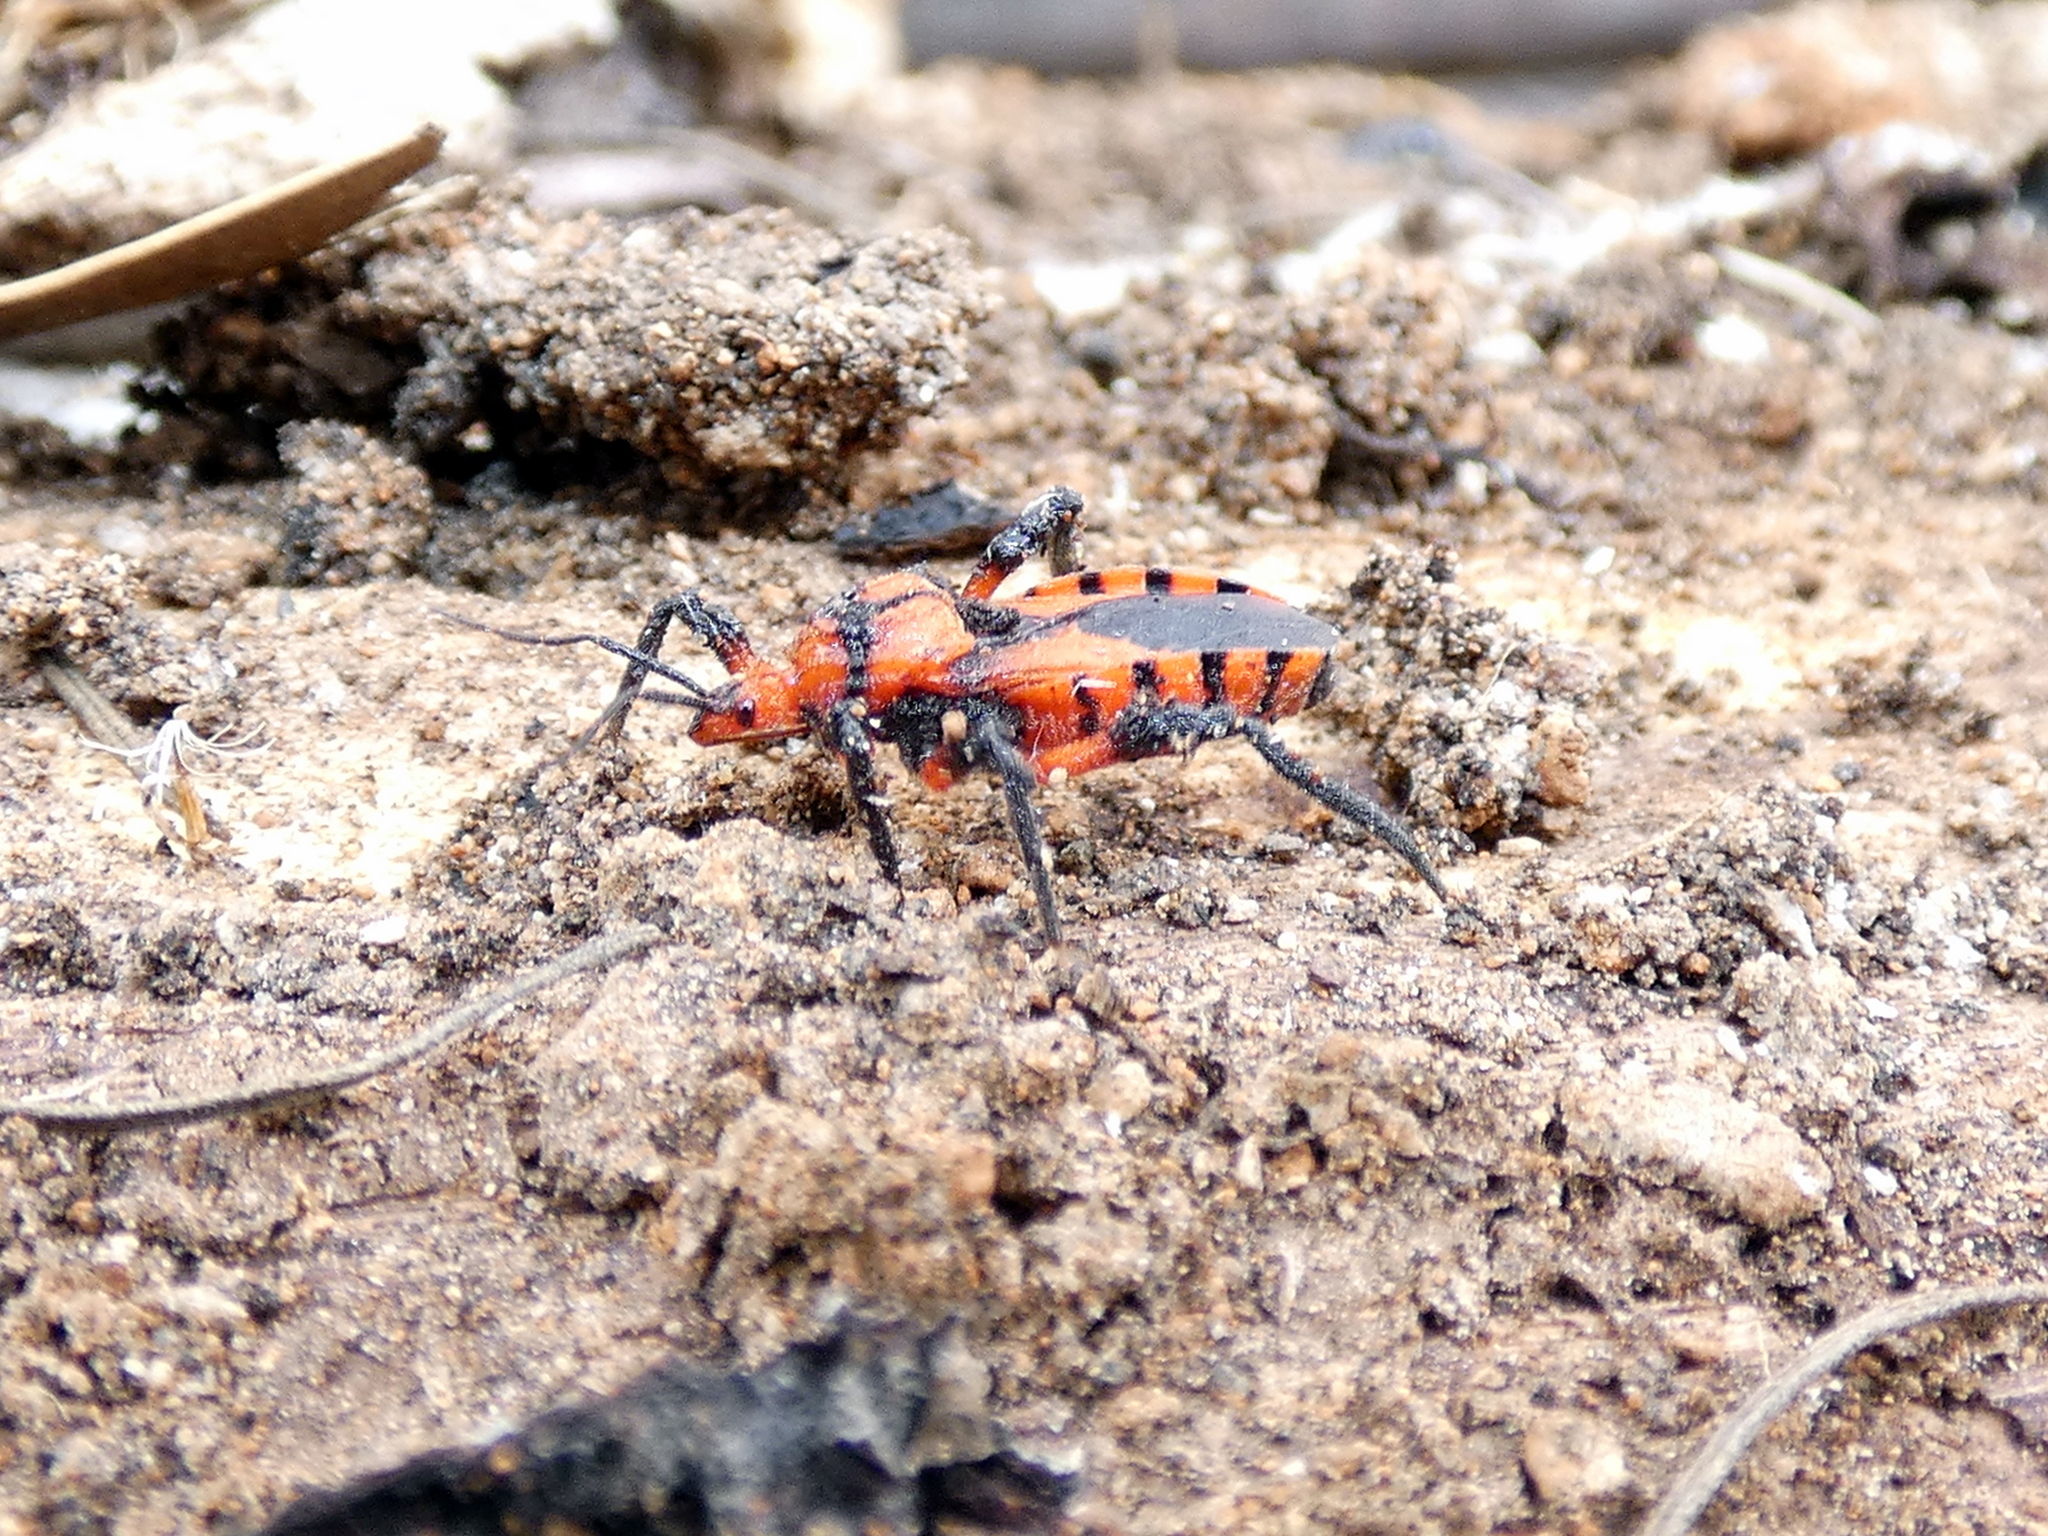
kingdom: Animalia
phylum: Arthropoda
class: Insecta
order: Hemiptera
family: Reduviidae
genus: Tegea
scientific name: Tegea atropicta
